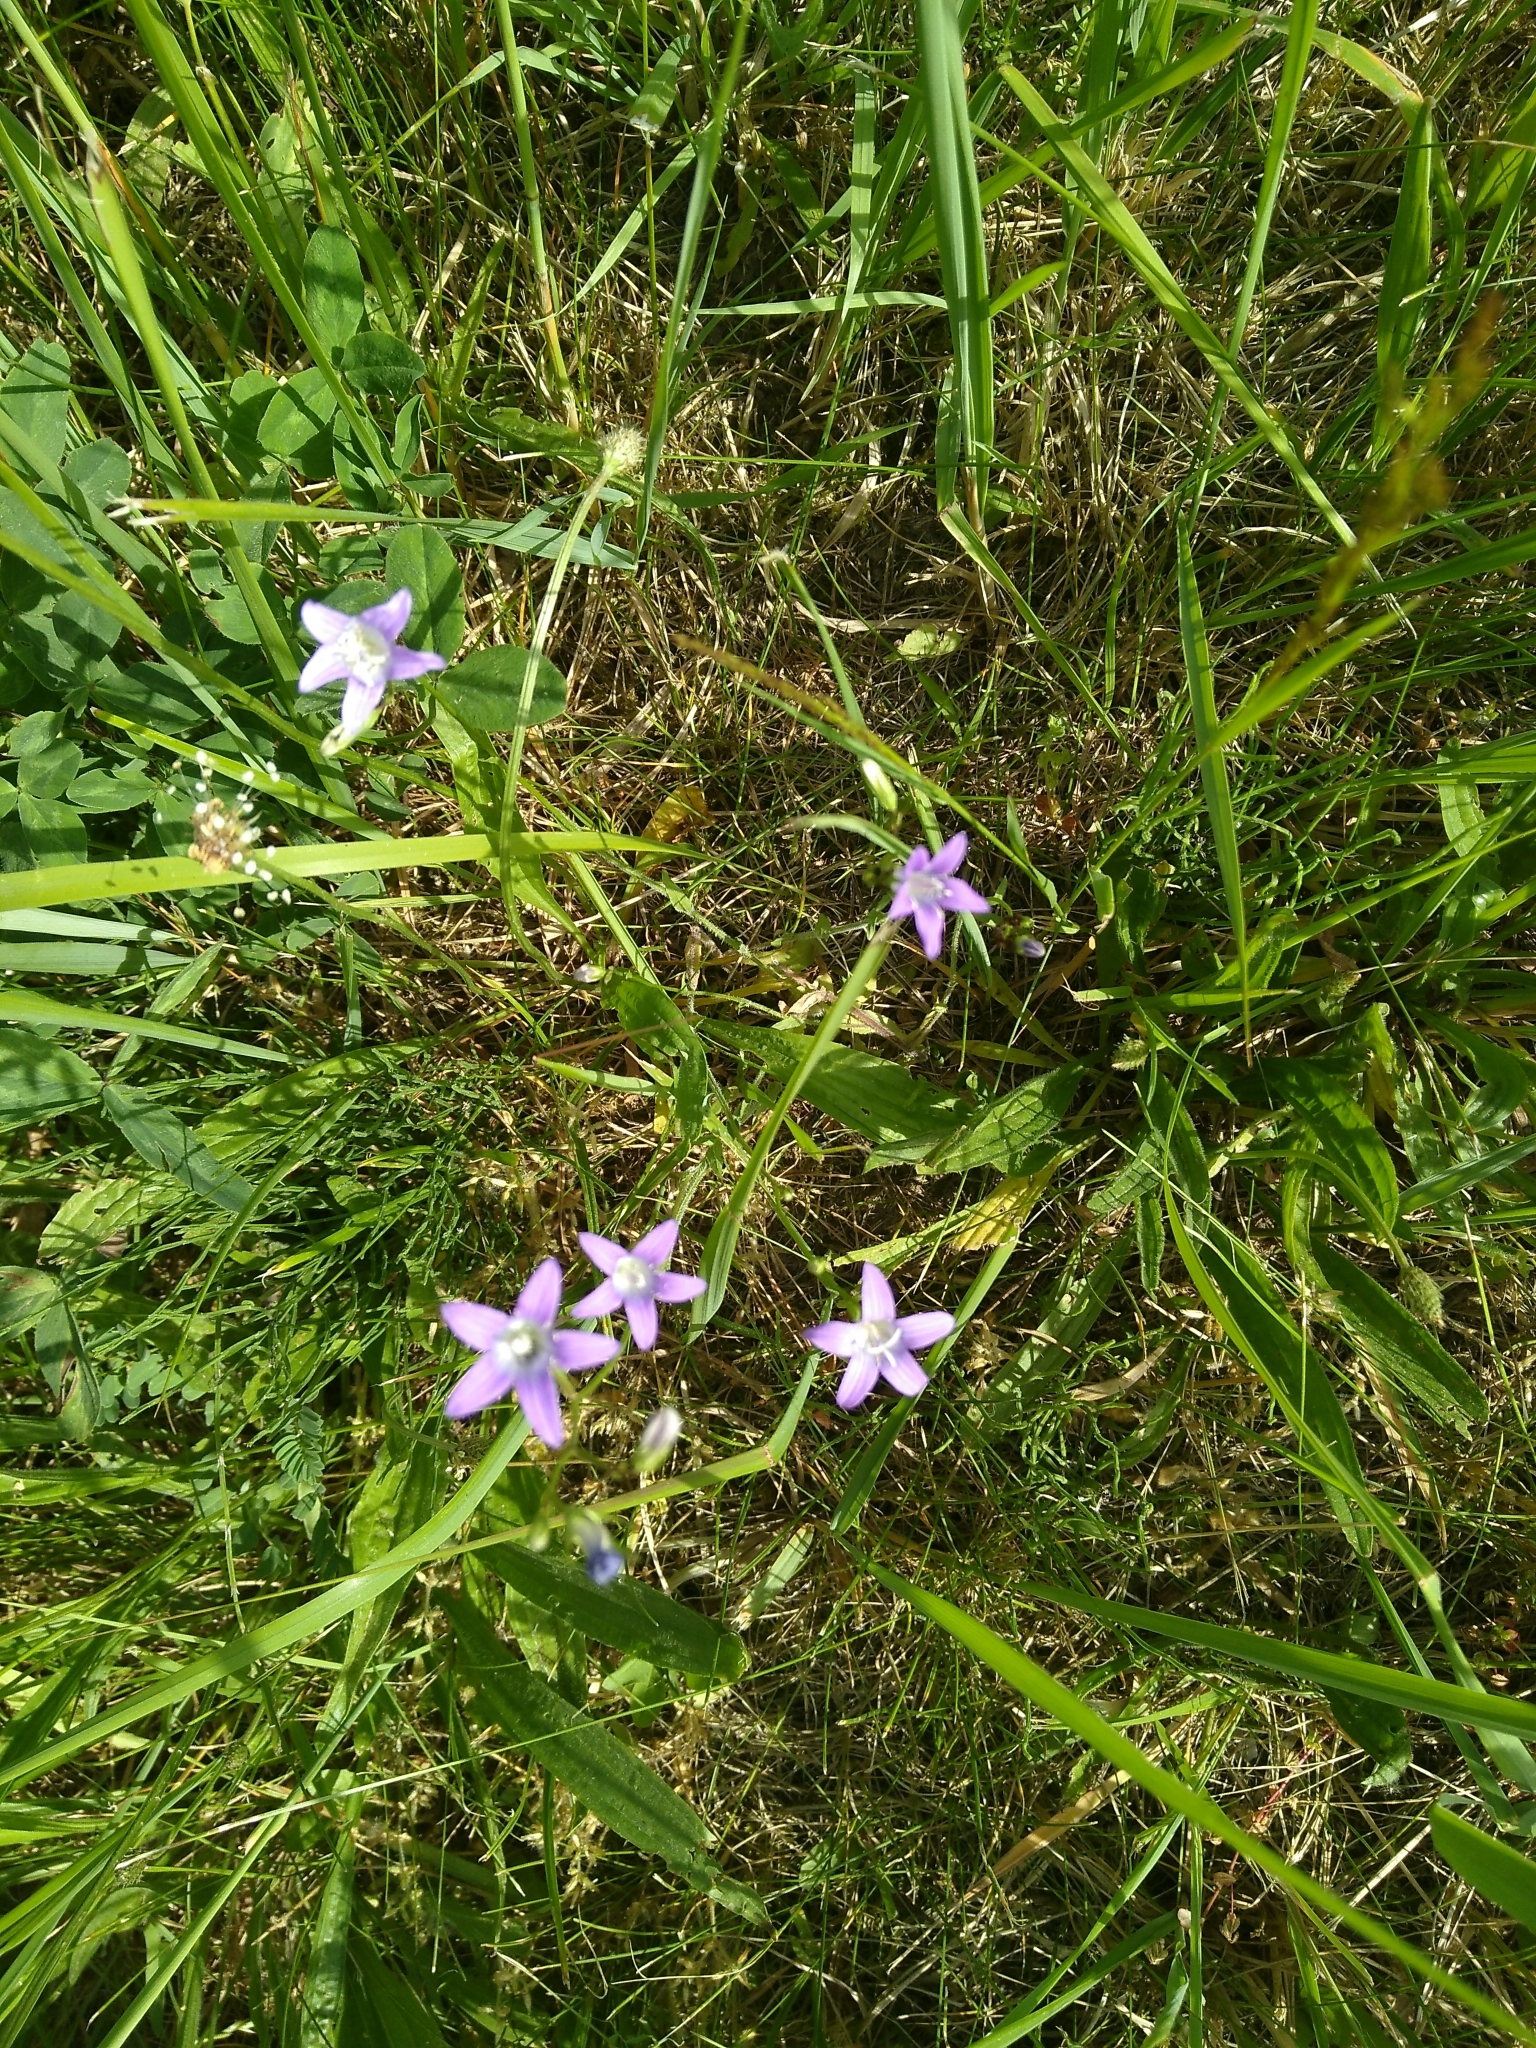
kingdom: Plantae
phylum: Tracheophyta
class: Magnoliopsida
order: Asterales
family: Campanulaceae
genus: Campanula
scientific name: Campanula patula
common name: Spreading bellflower
